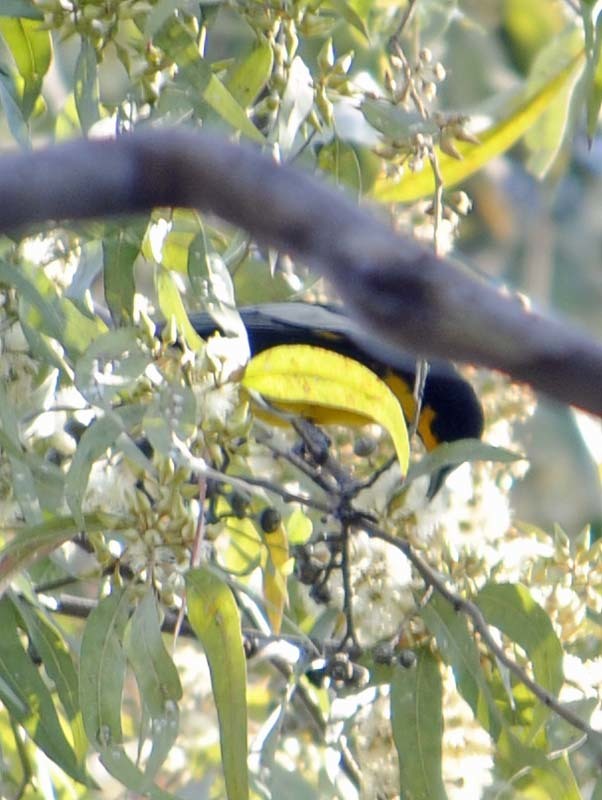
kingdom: Animalia
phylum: Chordata
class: Aves
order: Passeriformes
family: Icteridae
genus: Icterus
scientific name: Icterus abeillei
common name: Black-backed oriole
